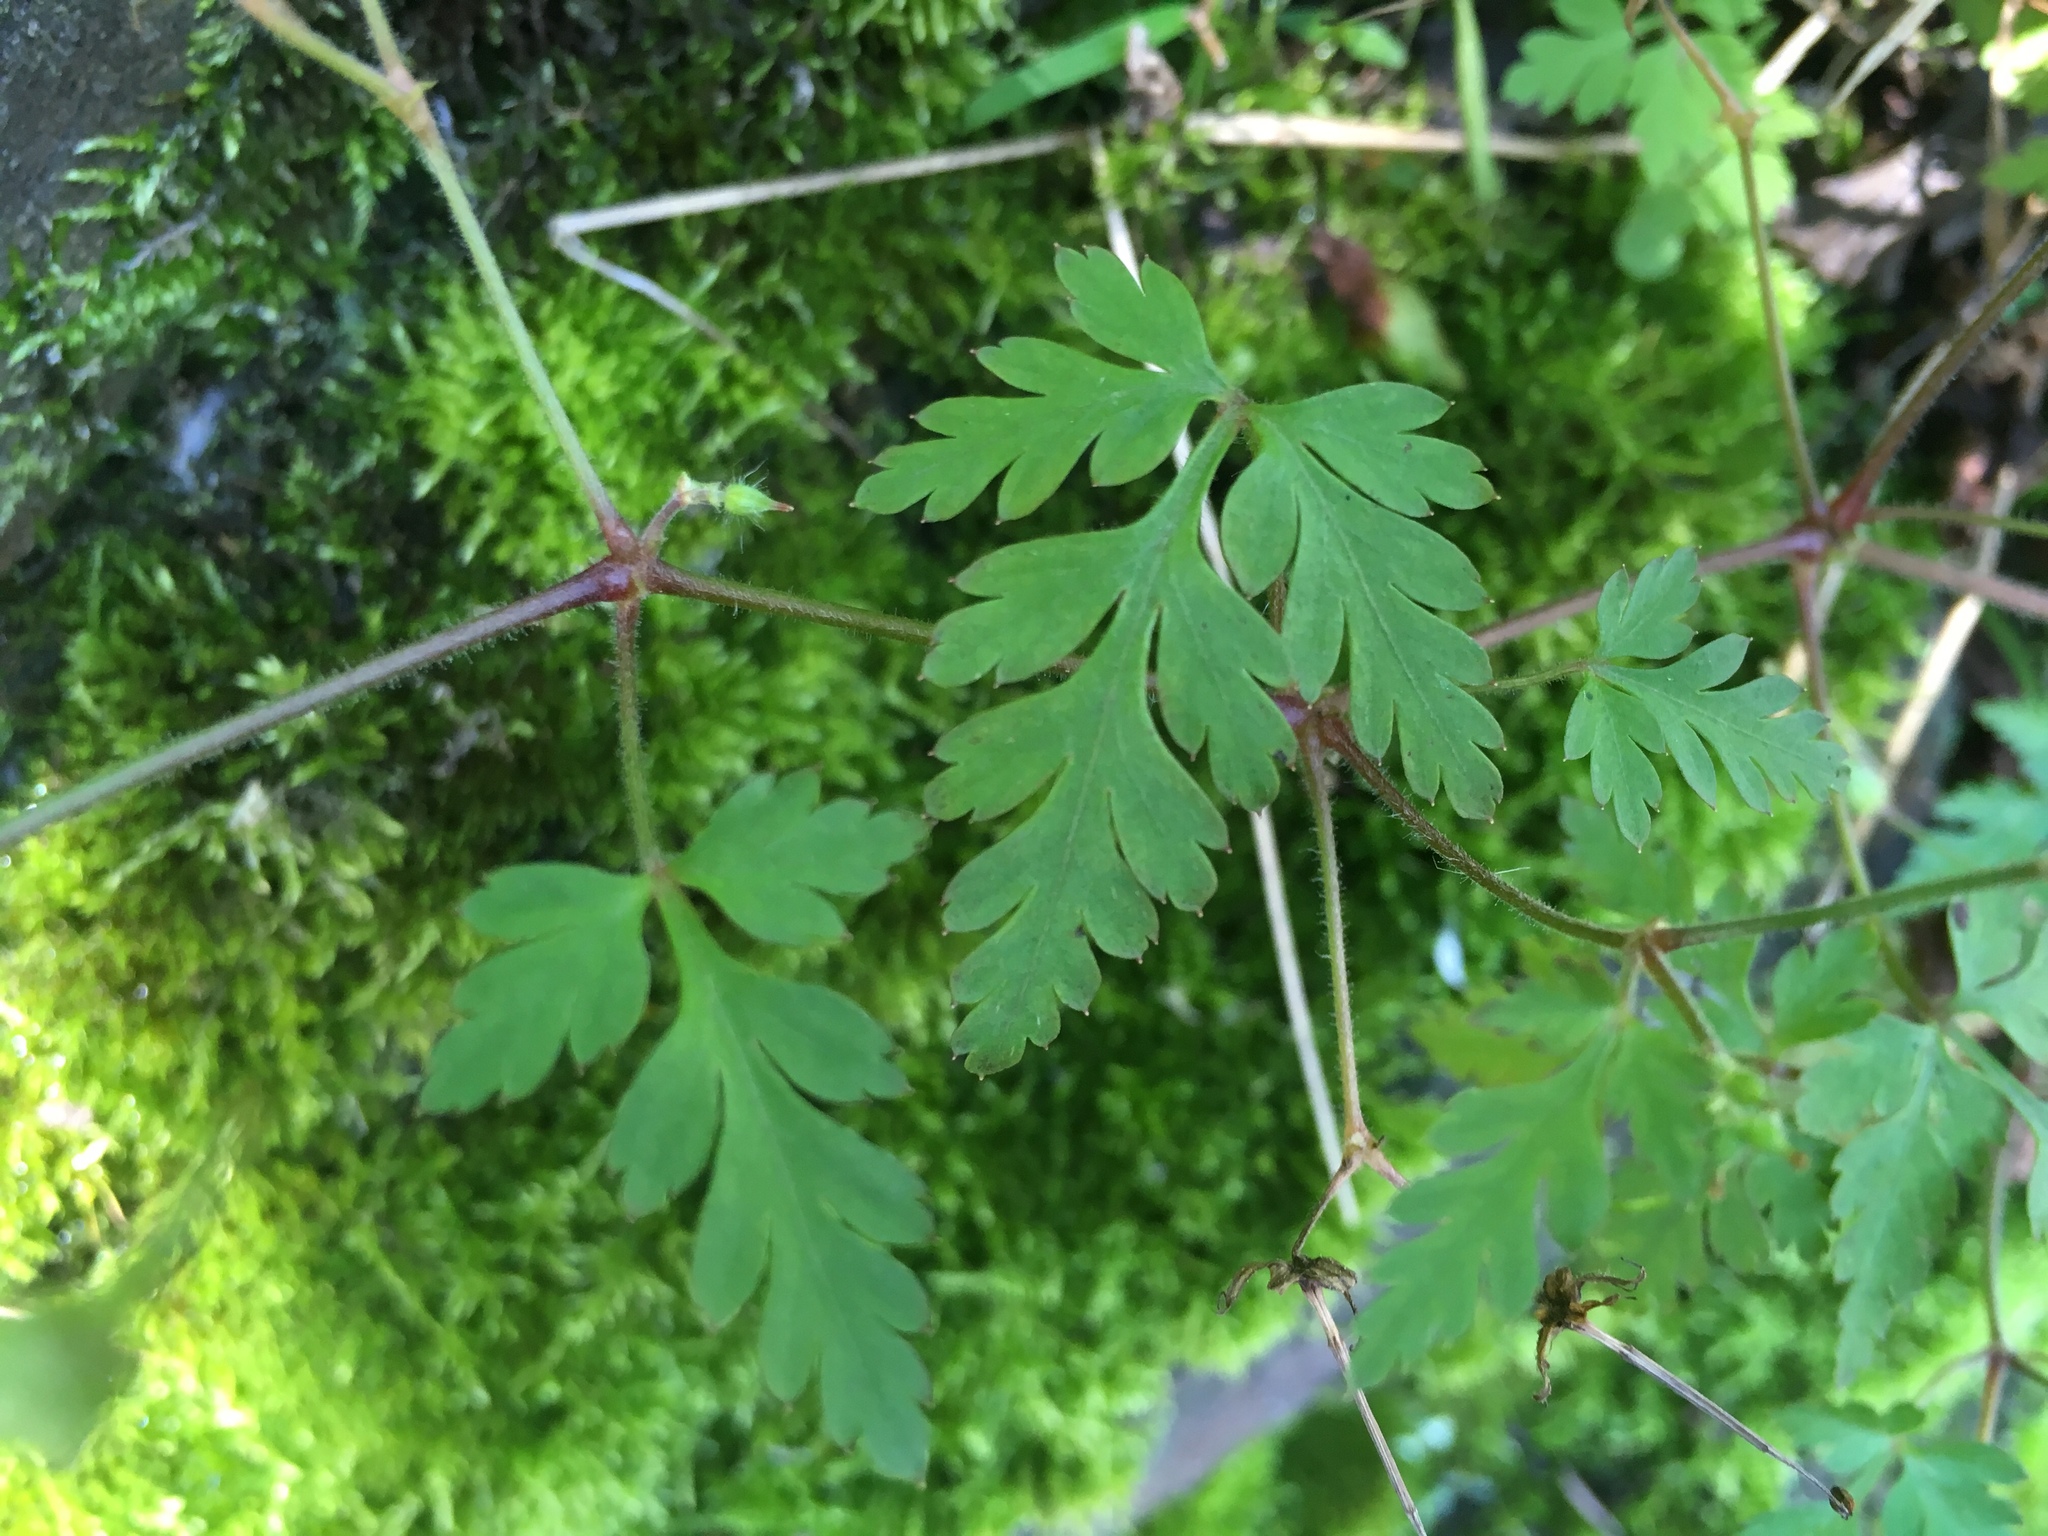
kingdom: Plantae
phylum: Tracheophyta
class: Magnoliopsida
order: Geraniales
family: Geraniaceae
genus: Geranium
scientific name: Geranium robertianum
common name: Herb-robert
